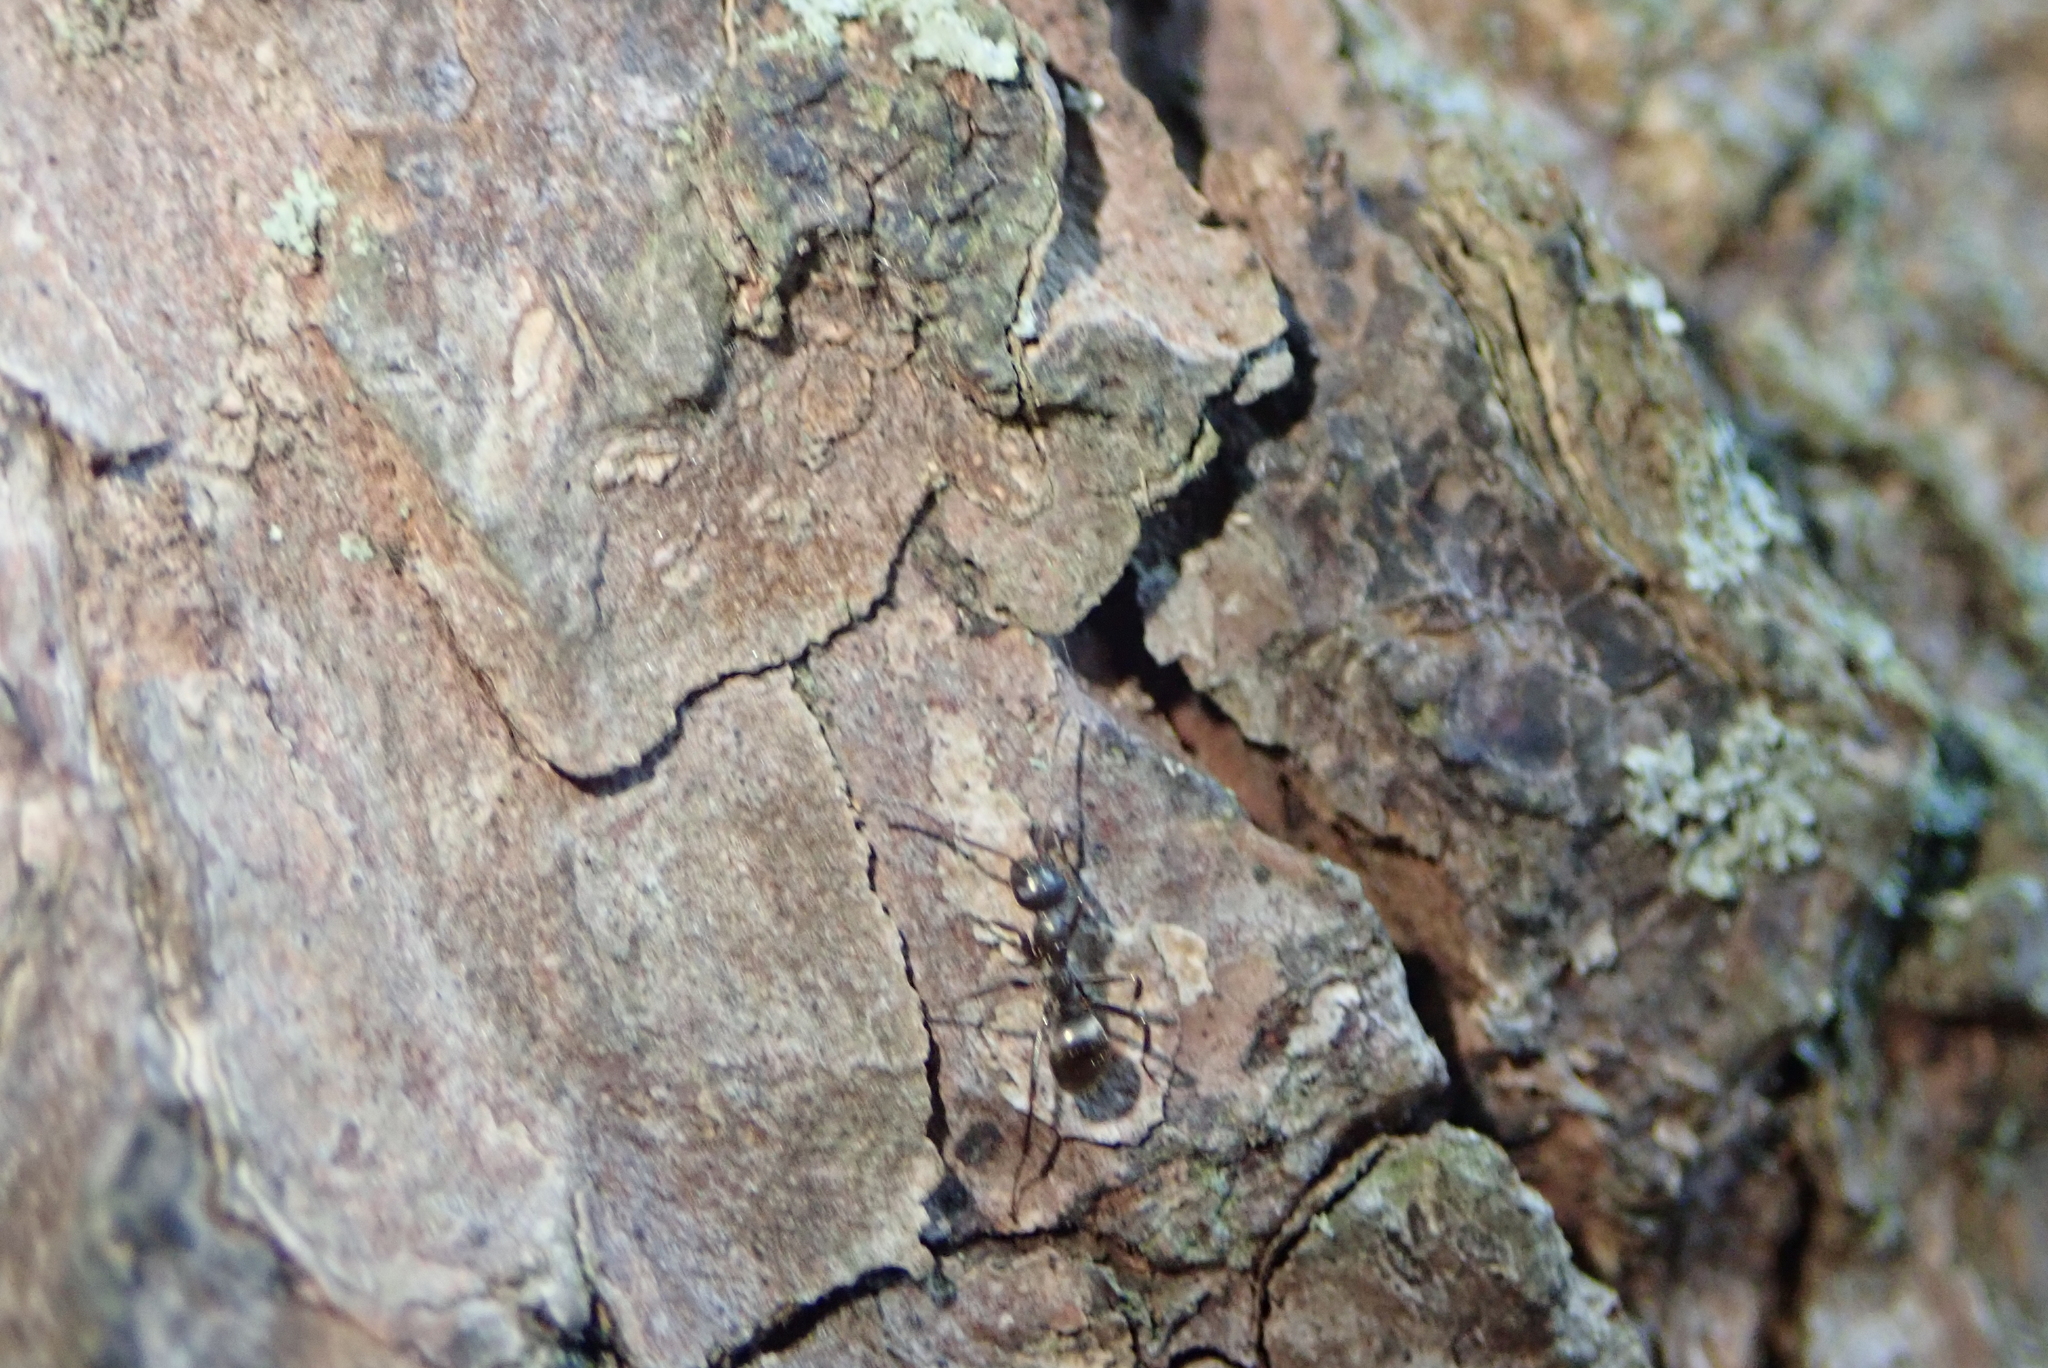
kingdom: Animalia
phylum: Arthropoda
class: Insecta
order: Hymenoptera
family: Formicidae
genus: Formica
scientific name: Formica subsericea
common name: Silky field ant
